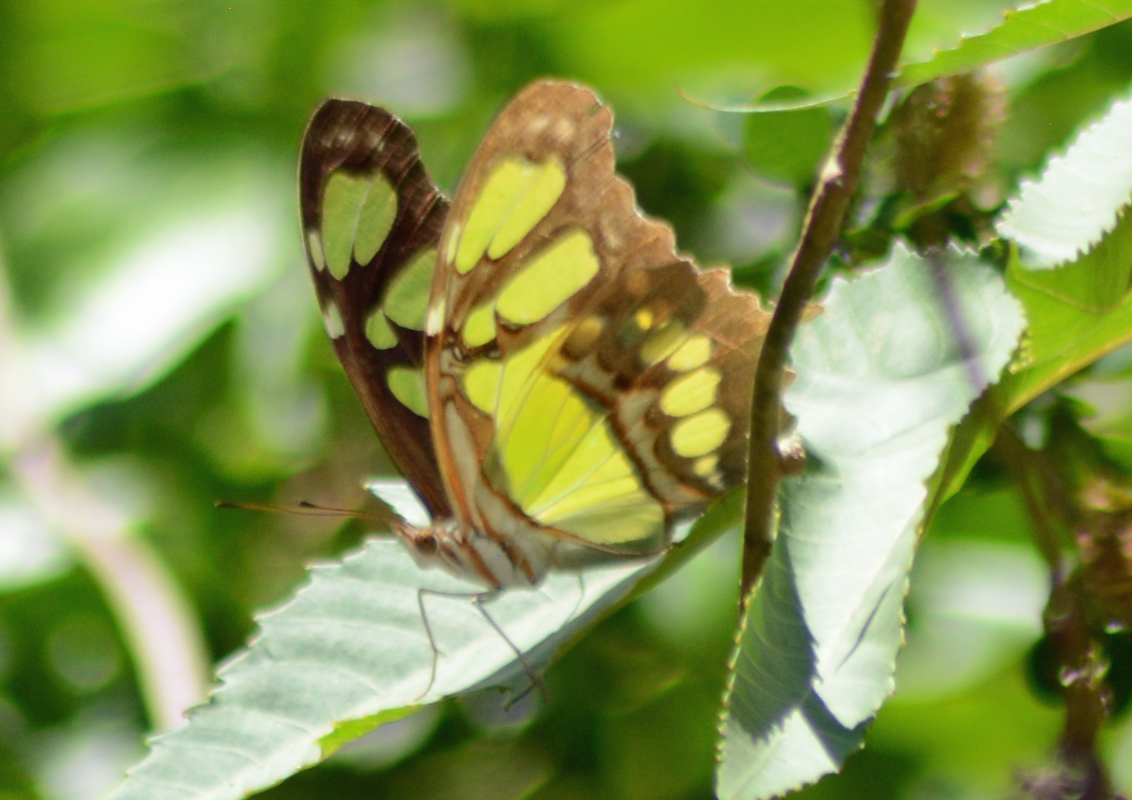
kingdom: Animalia
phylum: Arthropoda
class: Insecta
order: Lepidoptera
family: Nymphalidae
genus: Siproeta
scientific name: Siproeta stelenes
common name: Malachite
